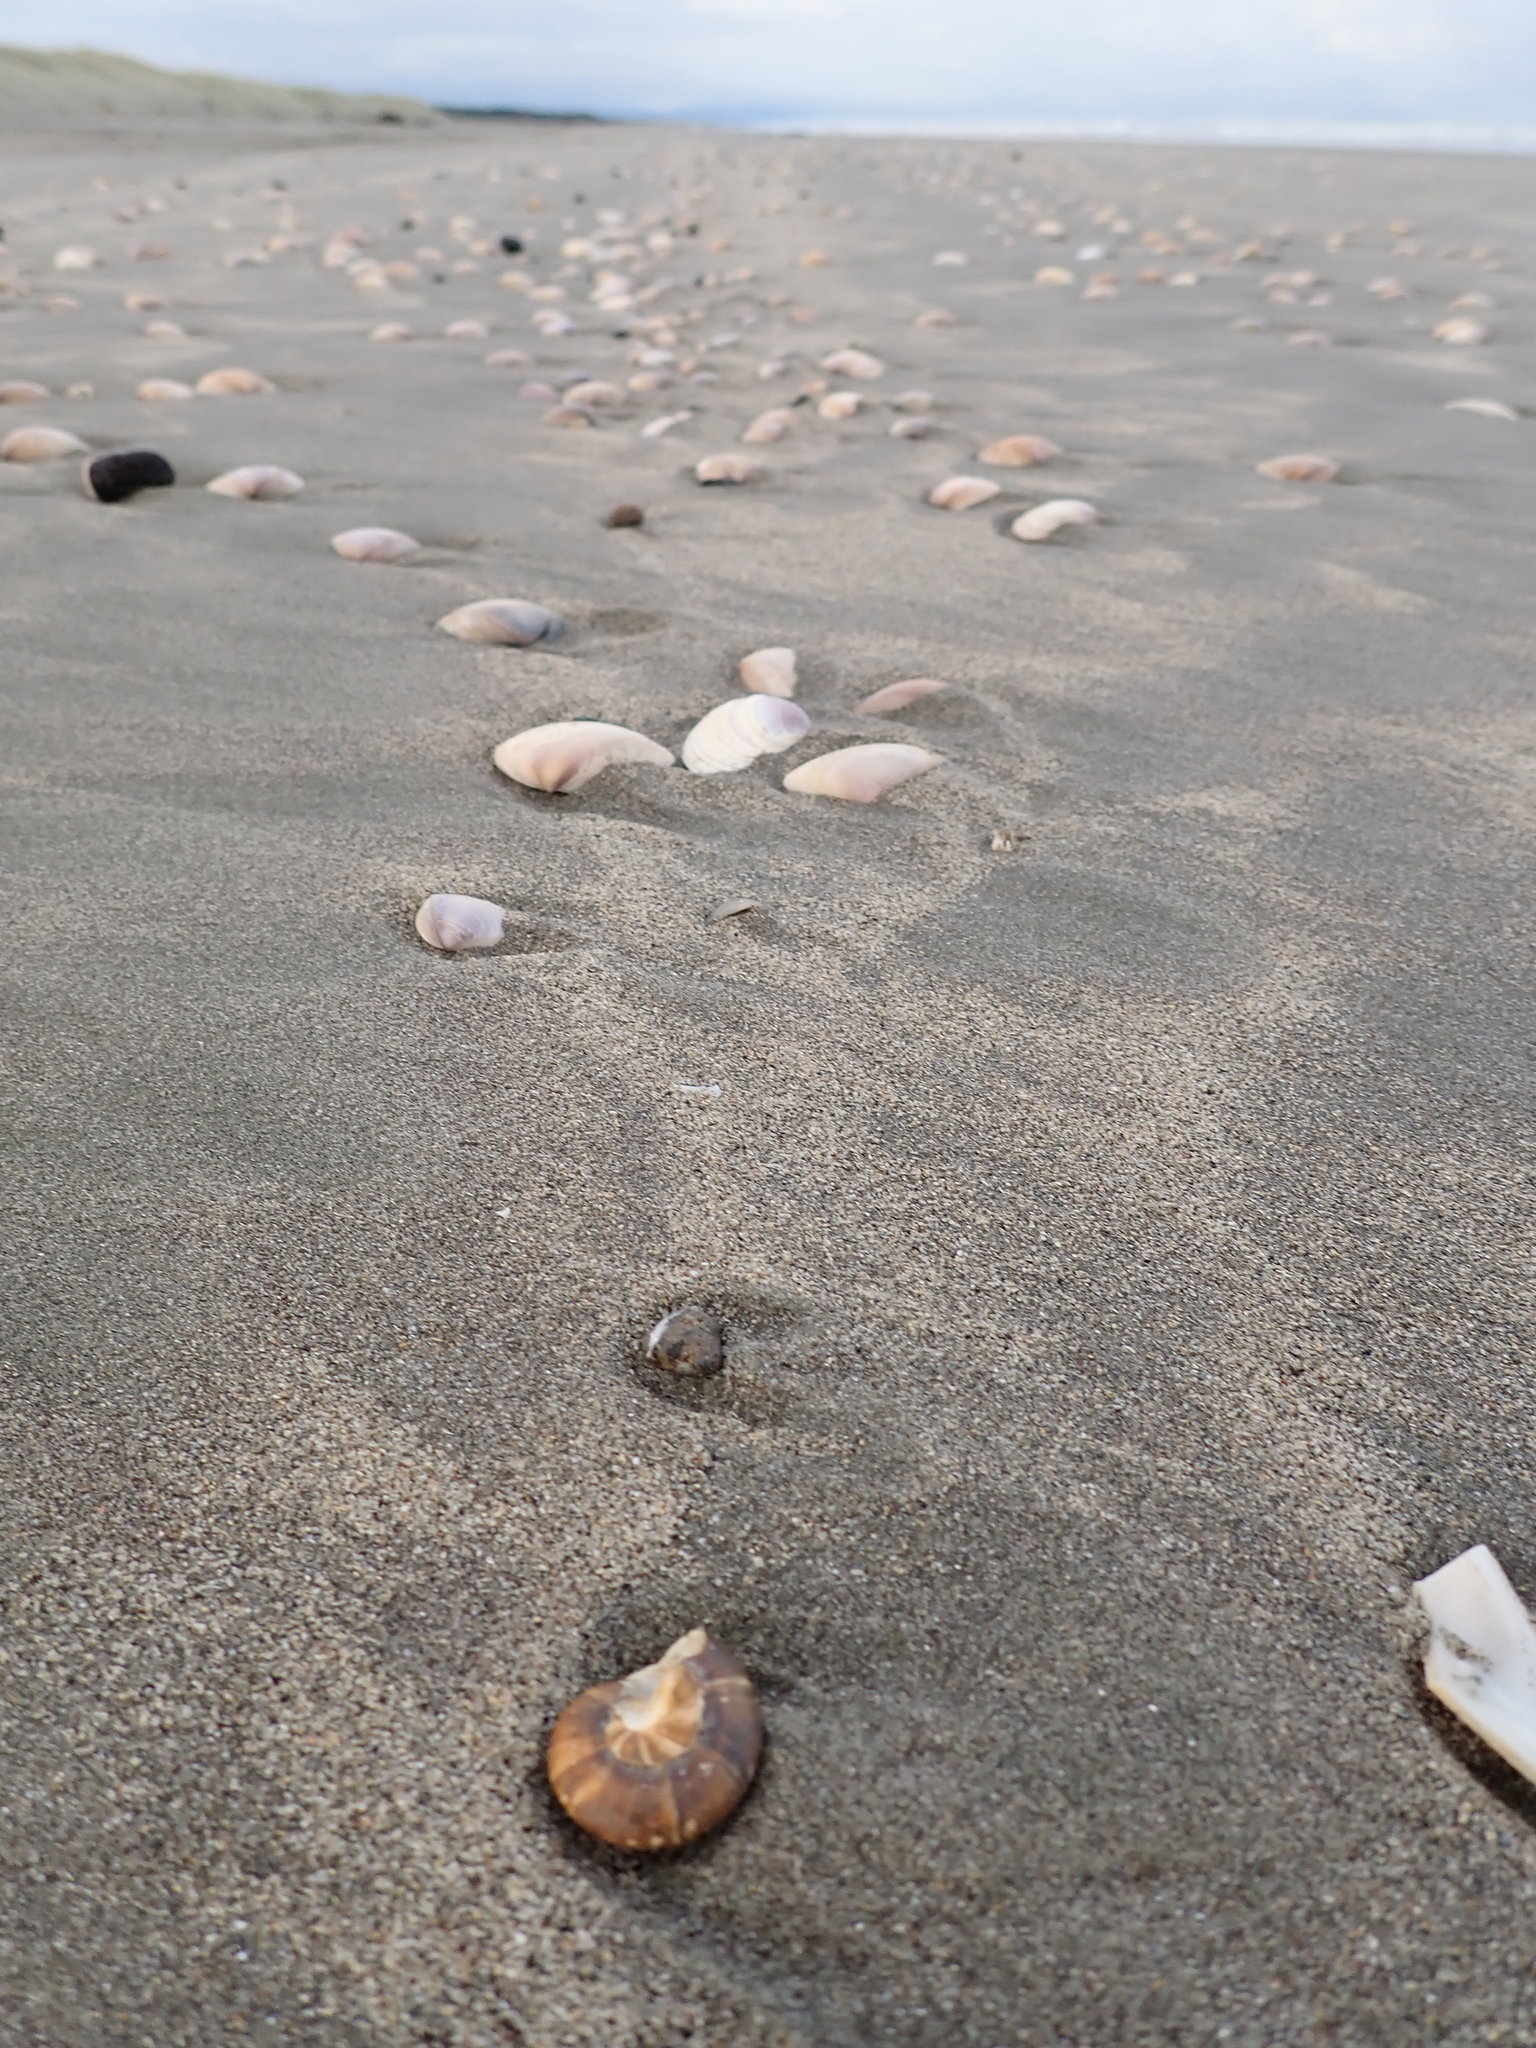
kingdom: Animalia
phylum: Mollusca
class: Gastropoda
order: Trochida
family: Trochidae
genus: Zethalia
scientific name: Zethalia zelandica
